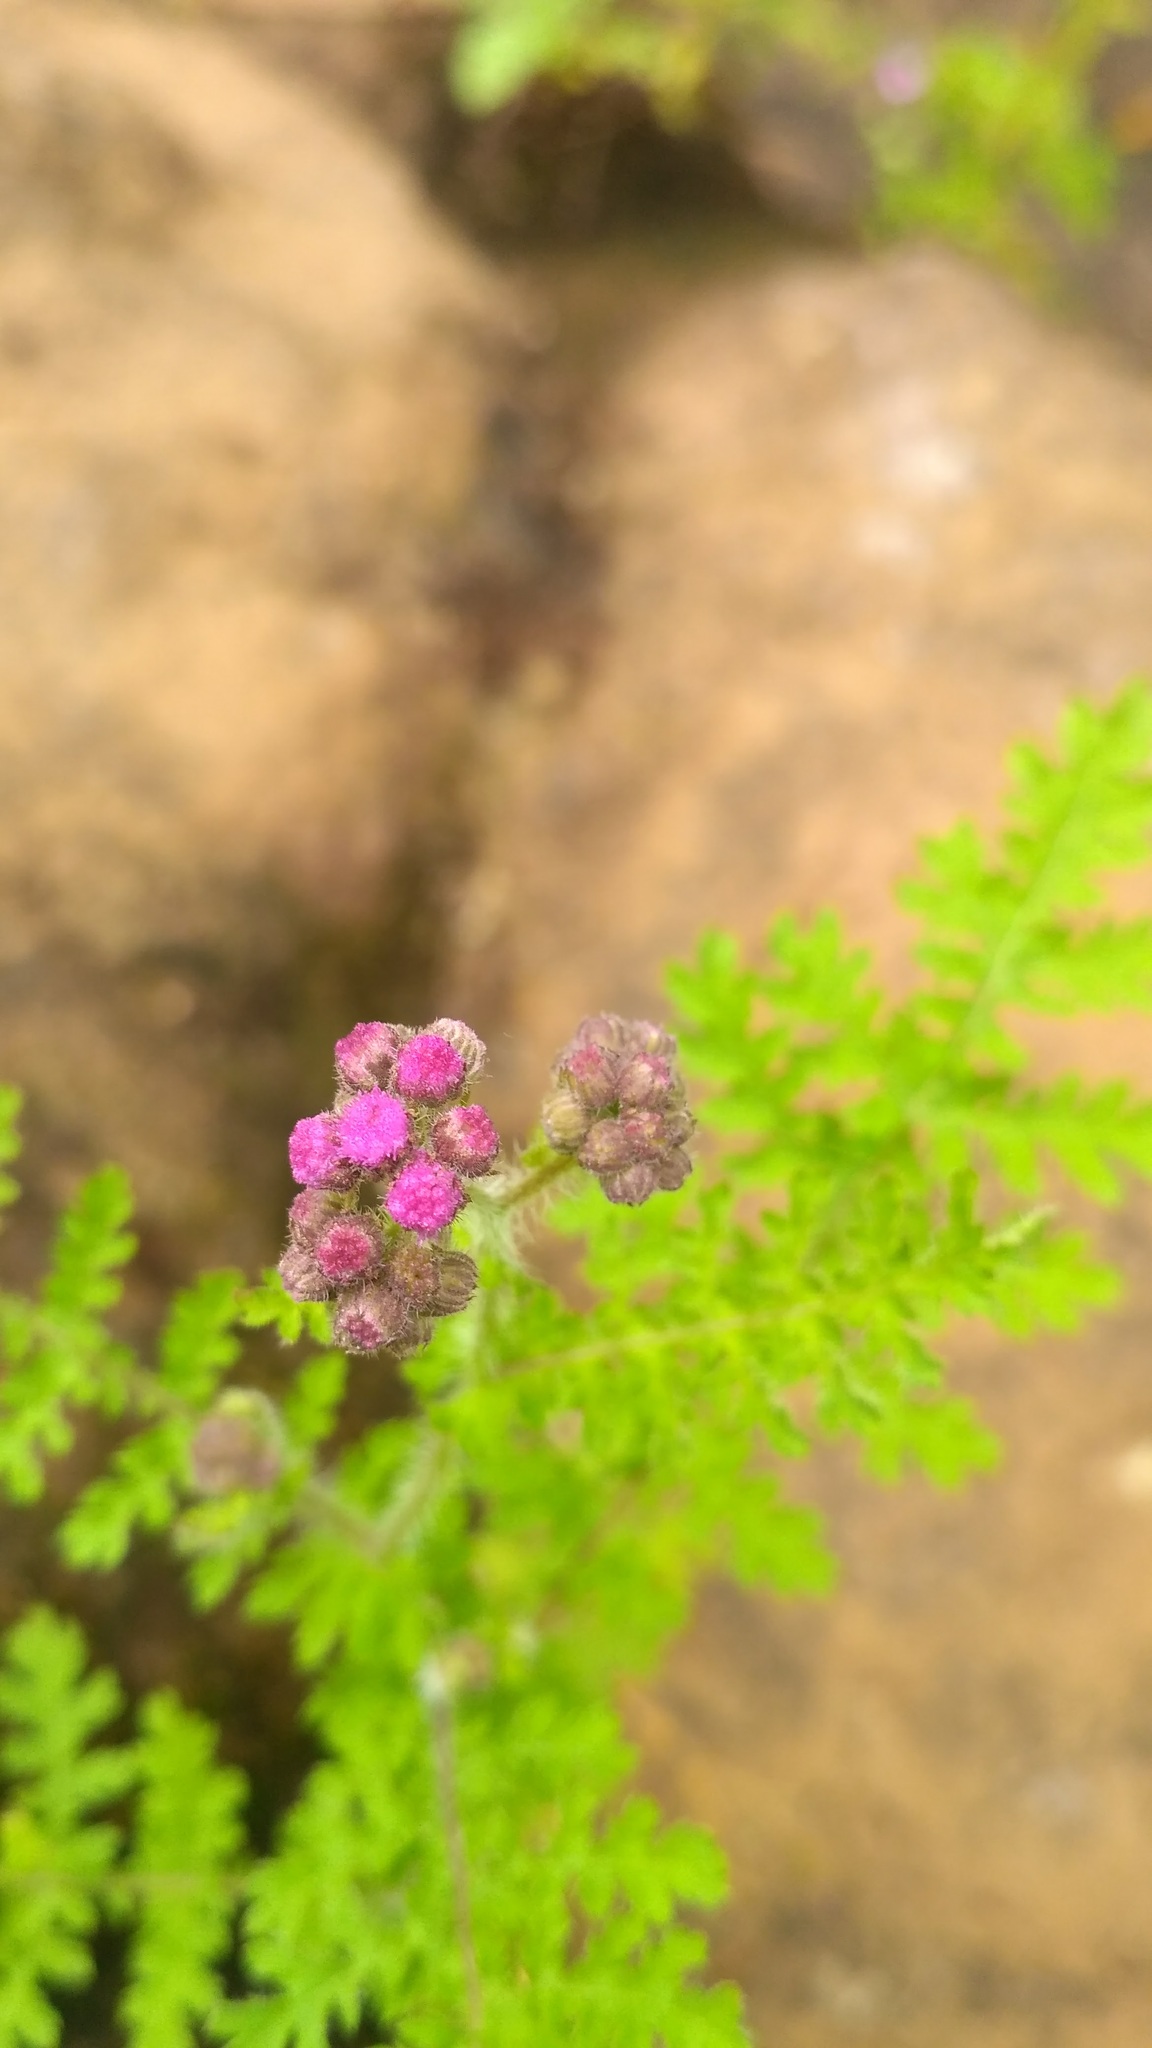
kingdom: Plantae
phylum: Tracheophyta
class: Magnoliopsida
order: Asterales
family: Asteraceae
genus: Cyathocline
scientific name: Cyathocline purpurea
